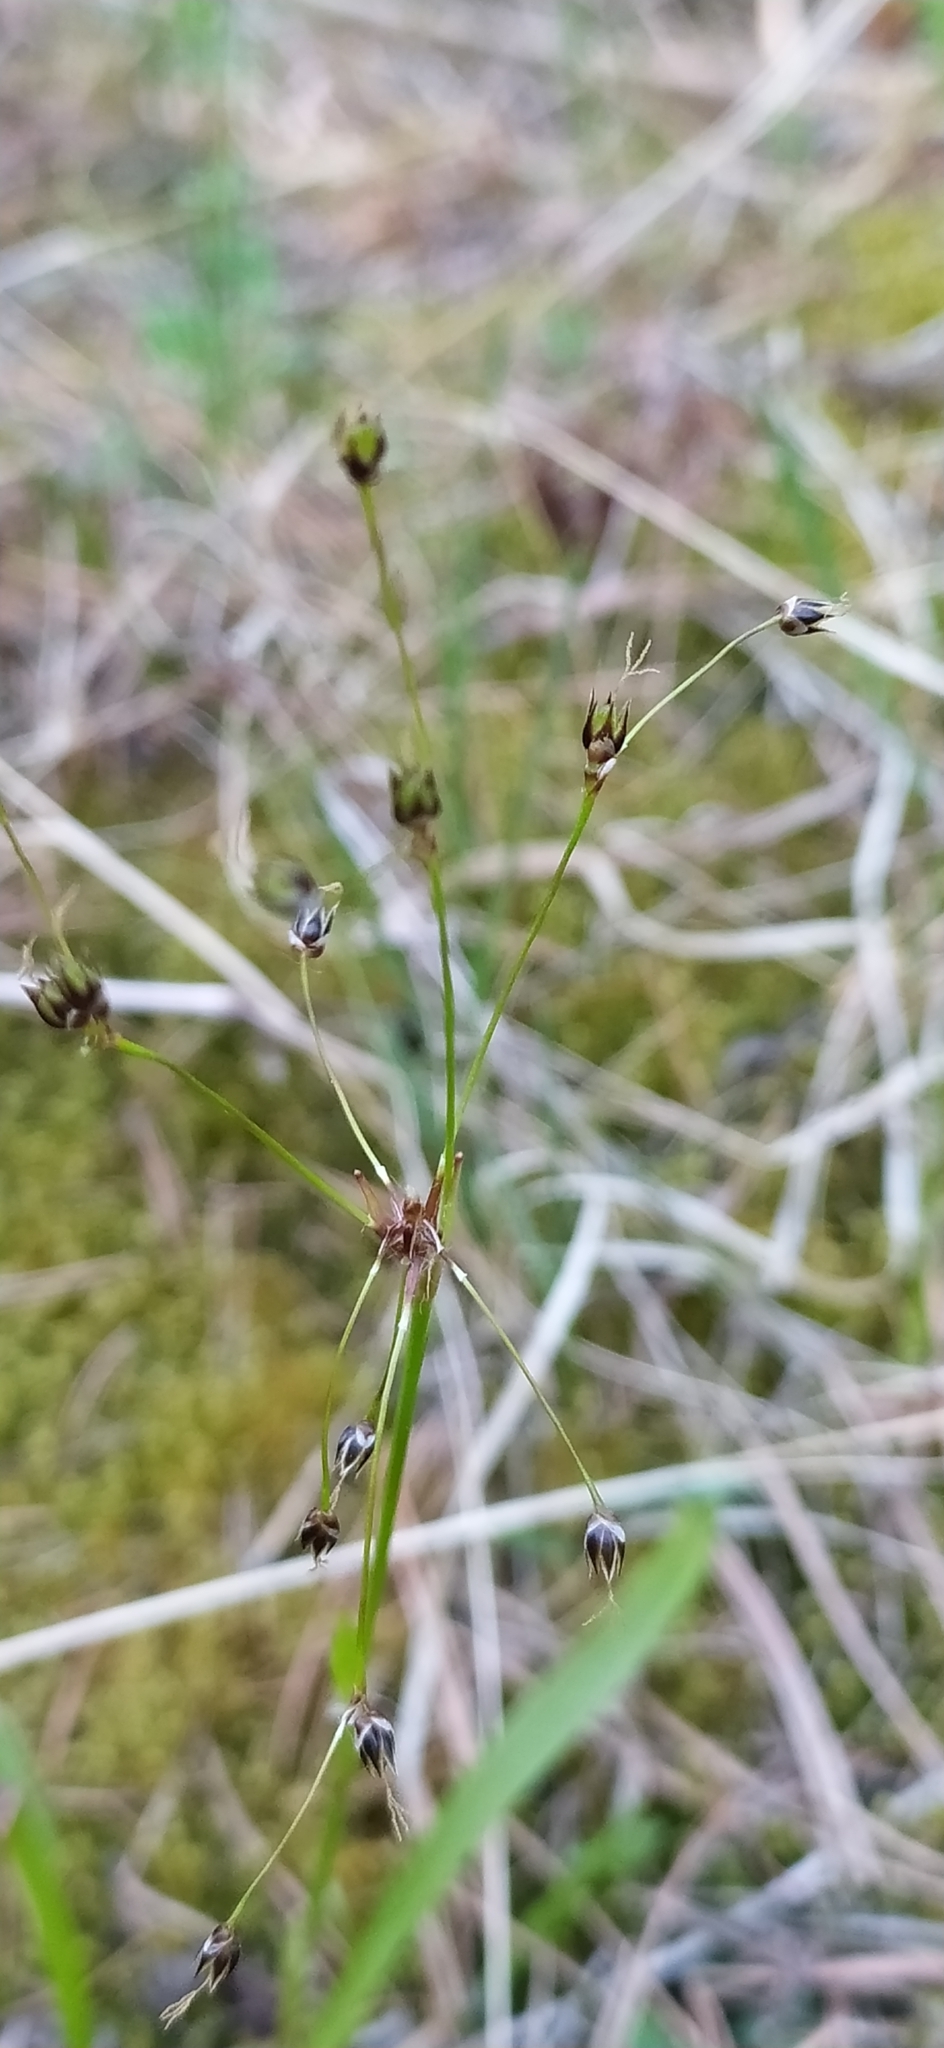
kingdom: Plantae
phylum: Tracheophyta
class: Liliopsida
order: Poales
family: Juncaceae
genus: Luzula
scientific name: Luzula pilosa
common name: Hairy wood-rush
